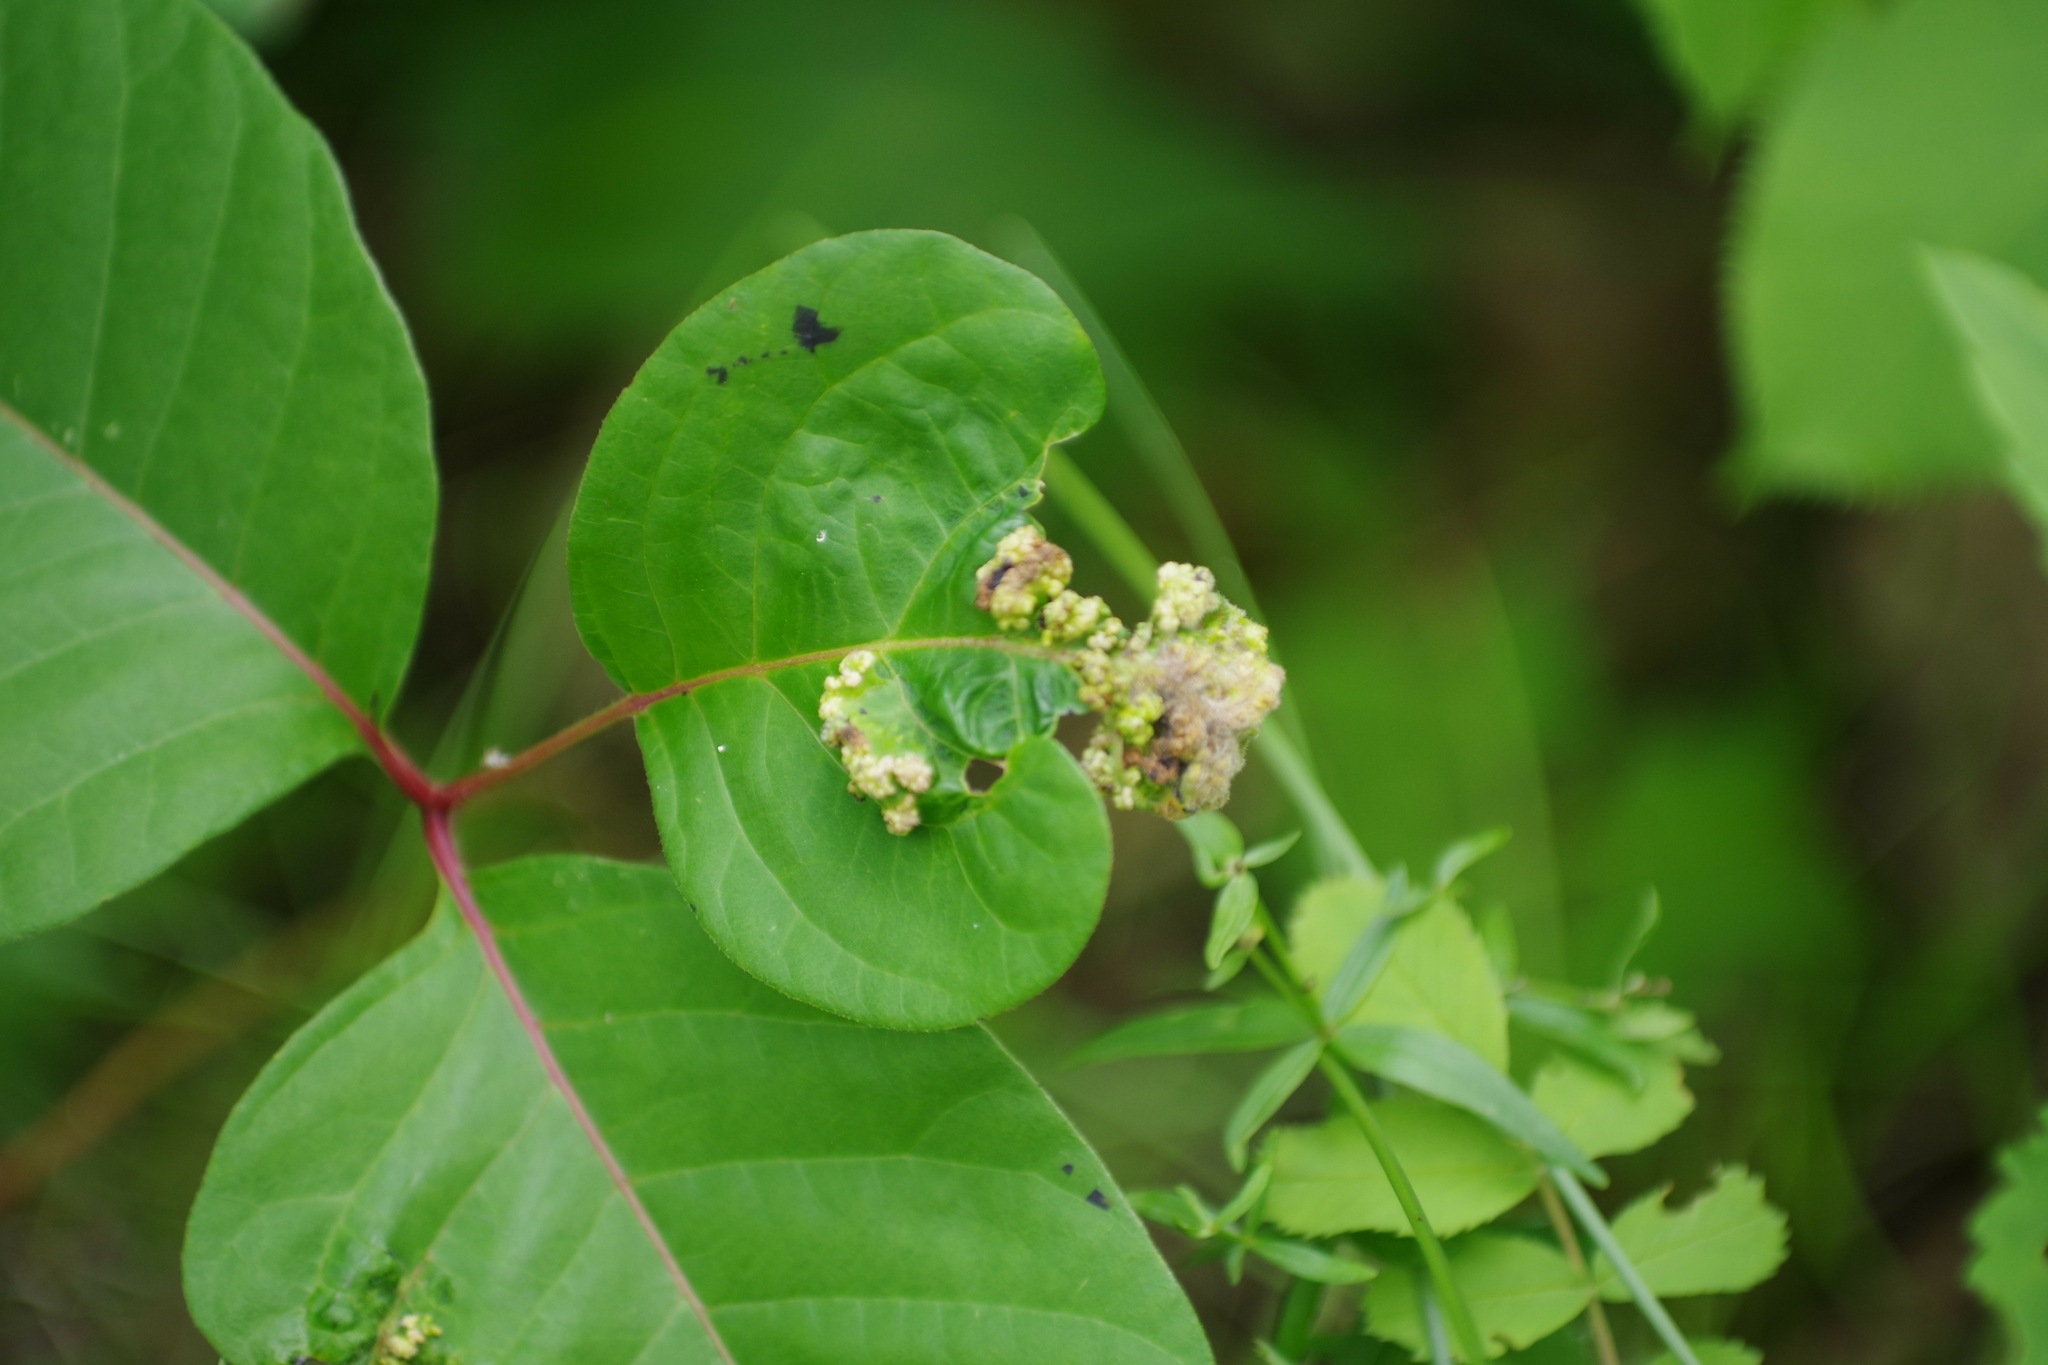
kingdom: Animalia
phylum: Arthropoda
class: Arachnida
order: Trombidiformes
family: Eriophyidae
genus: Aculops
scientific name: Aculops
